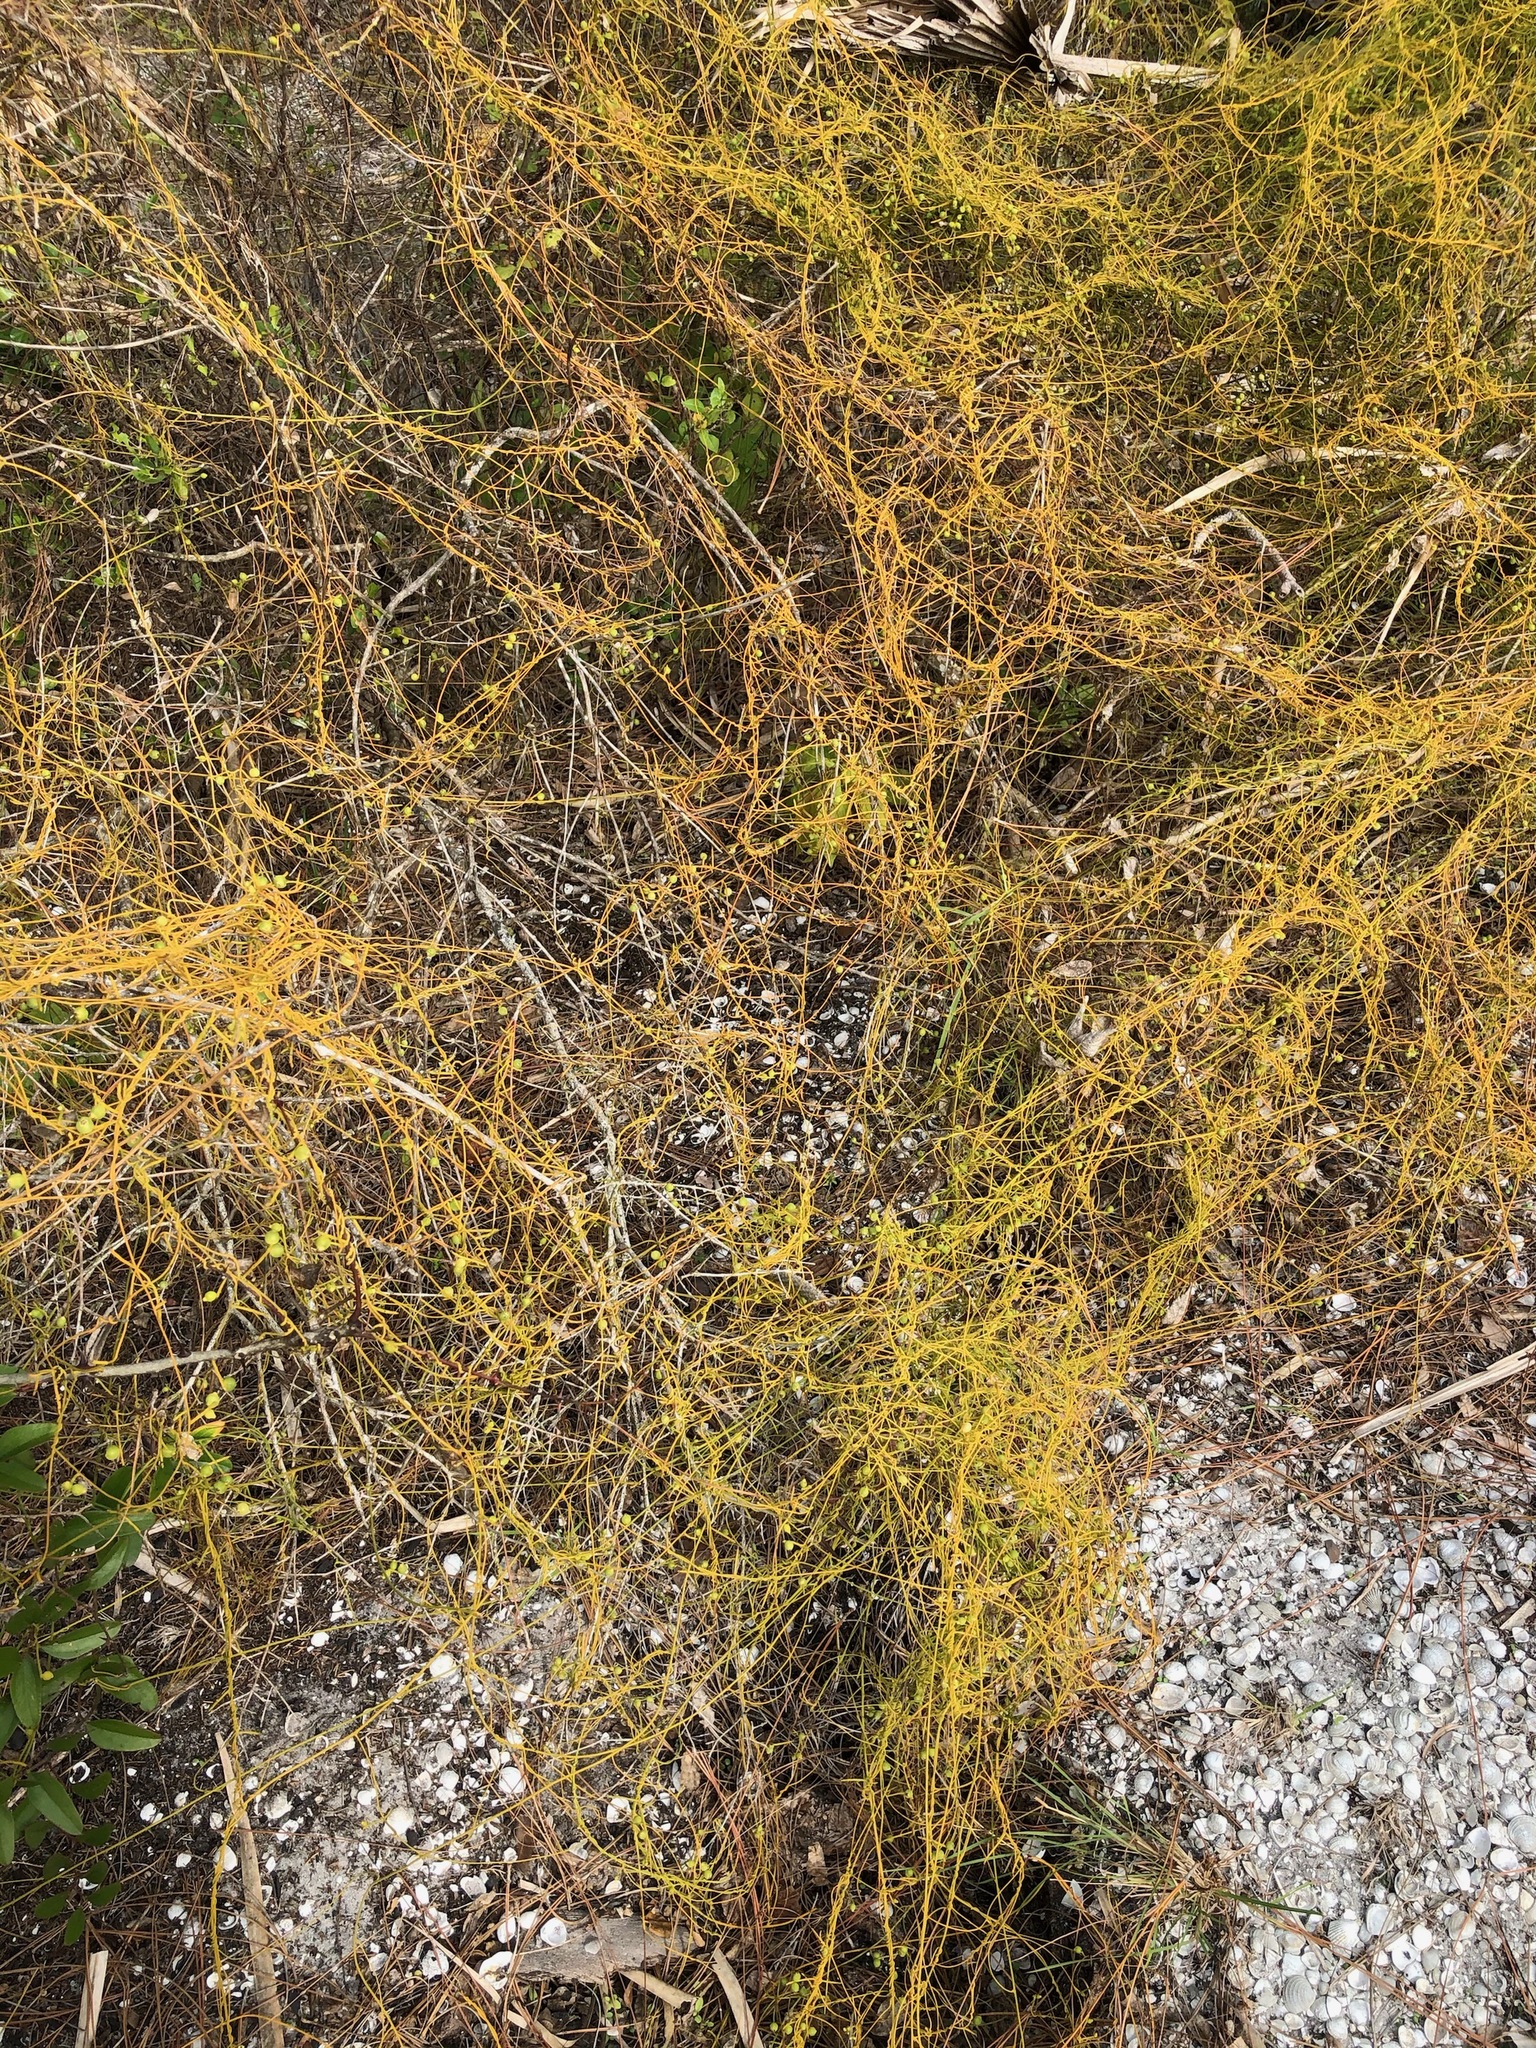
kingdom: Plantae
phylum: Tracheophyta
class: Magnoliopsida
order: Laurales
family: Lauraceae
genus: Cassytha
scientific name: Cassytha filiformis
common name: Dodder-laurel
